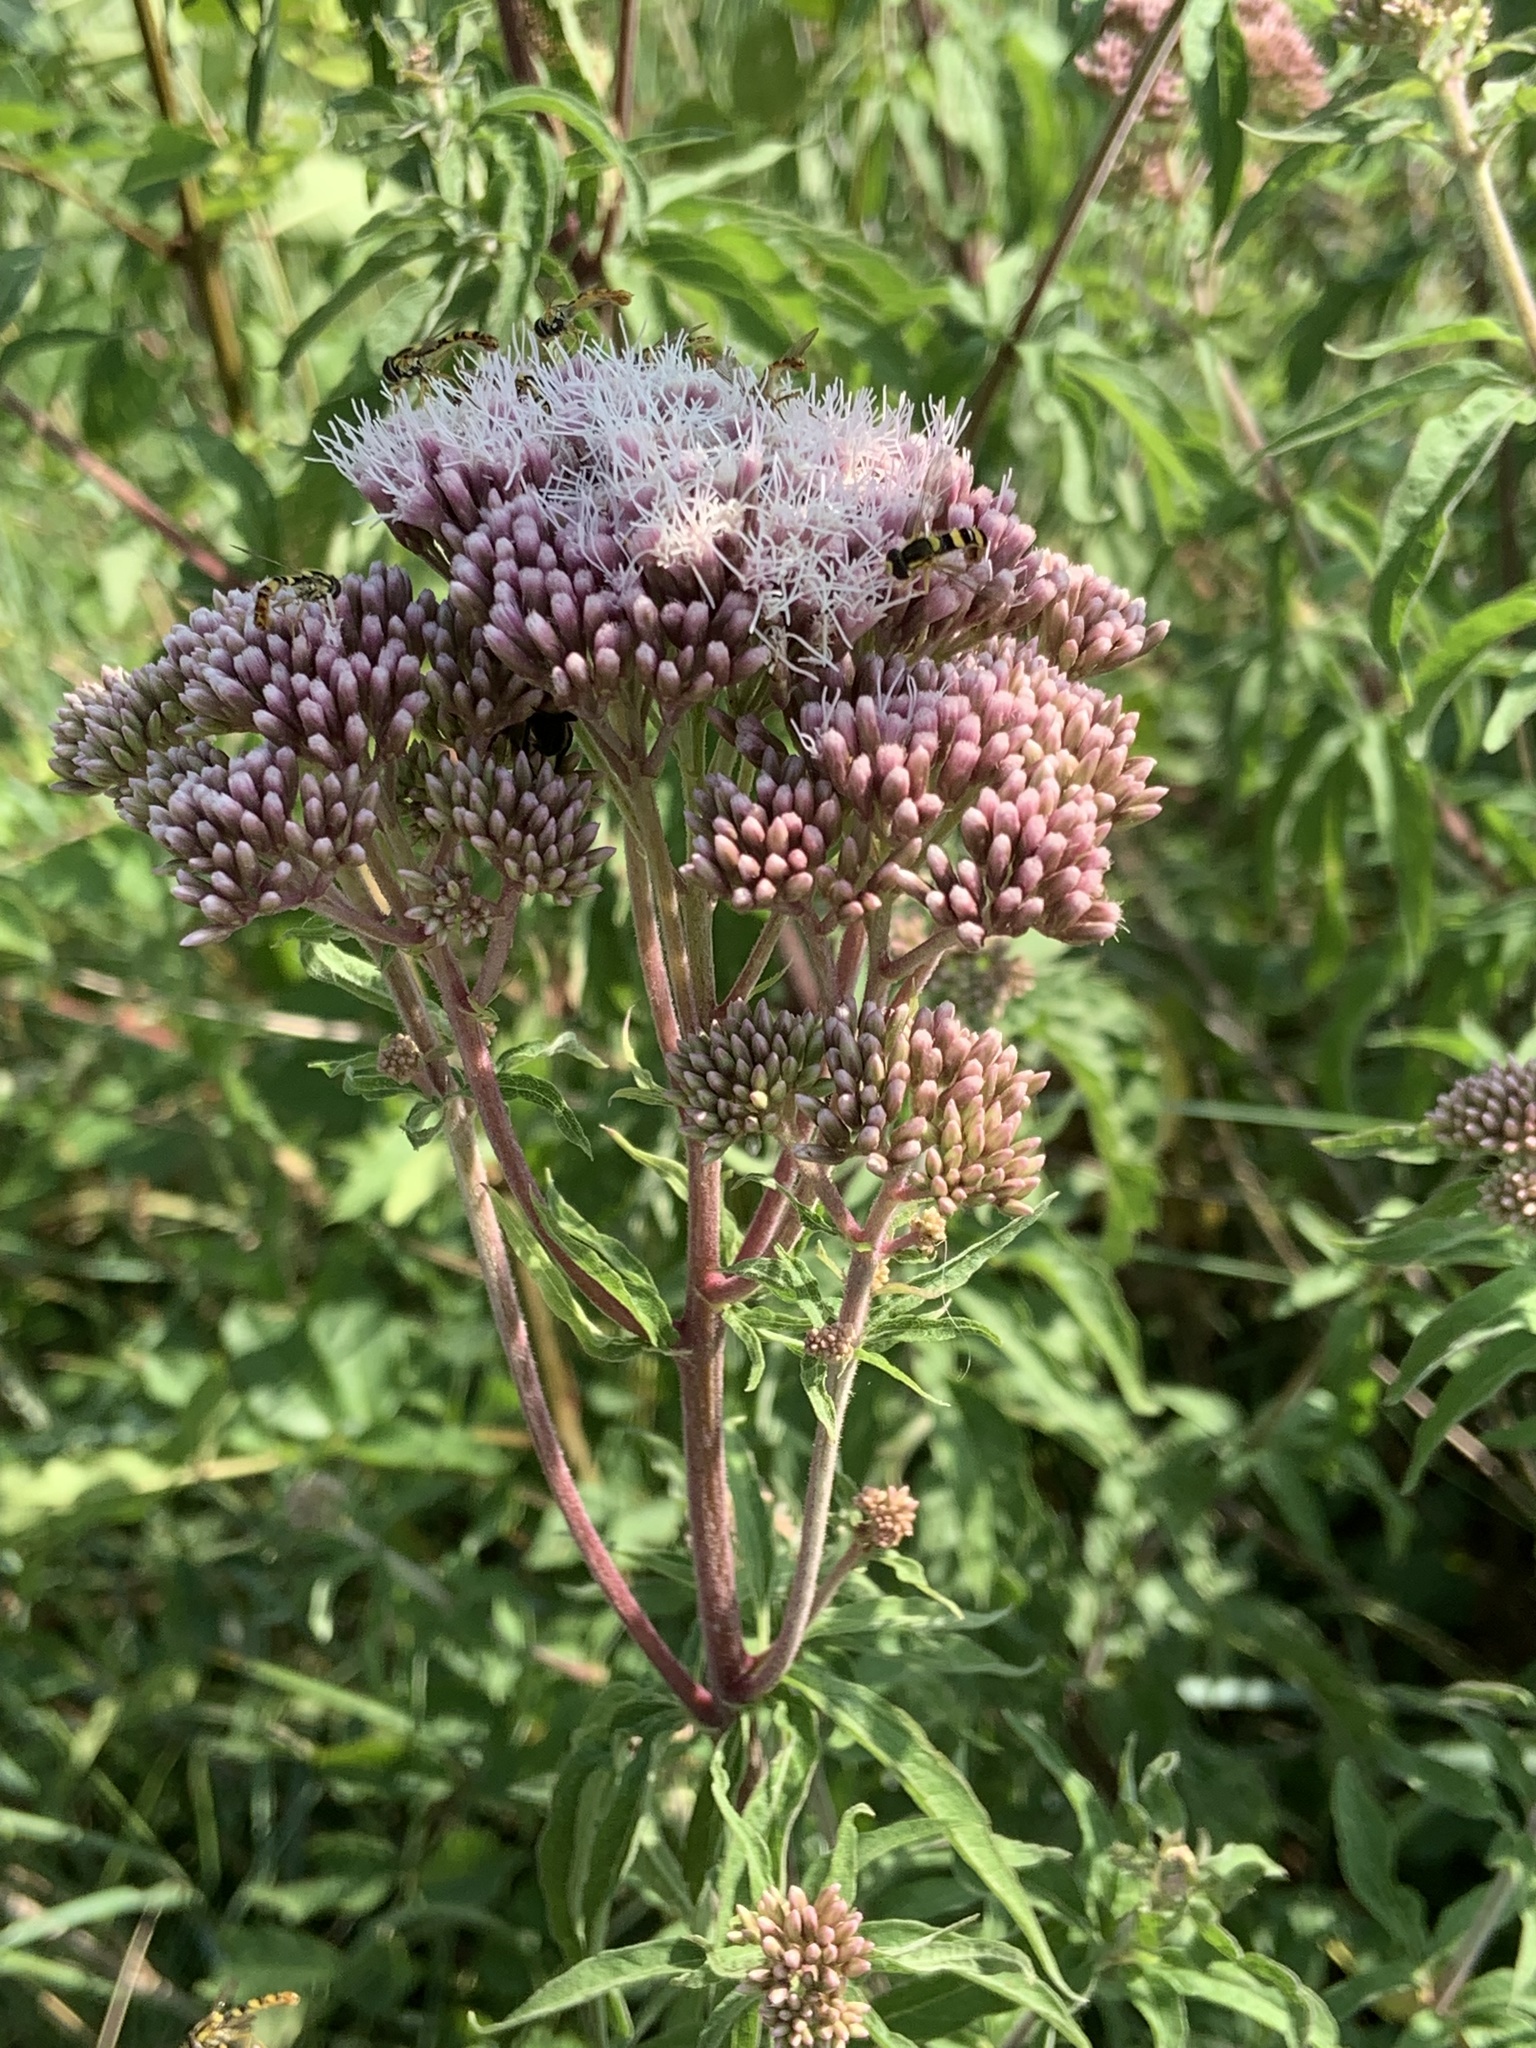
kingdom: Plantae
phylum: Tracheophyta
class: Magnoliopsida
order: Asterales
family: Asteraceae
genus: Eupatorium
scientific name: Eupatorium cannabinum
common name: Hemp-agrimony
